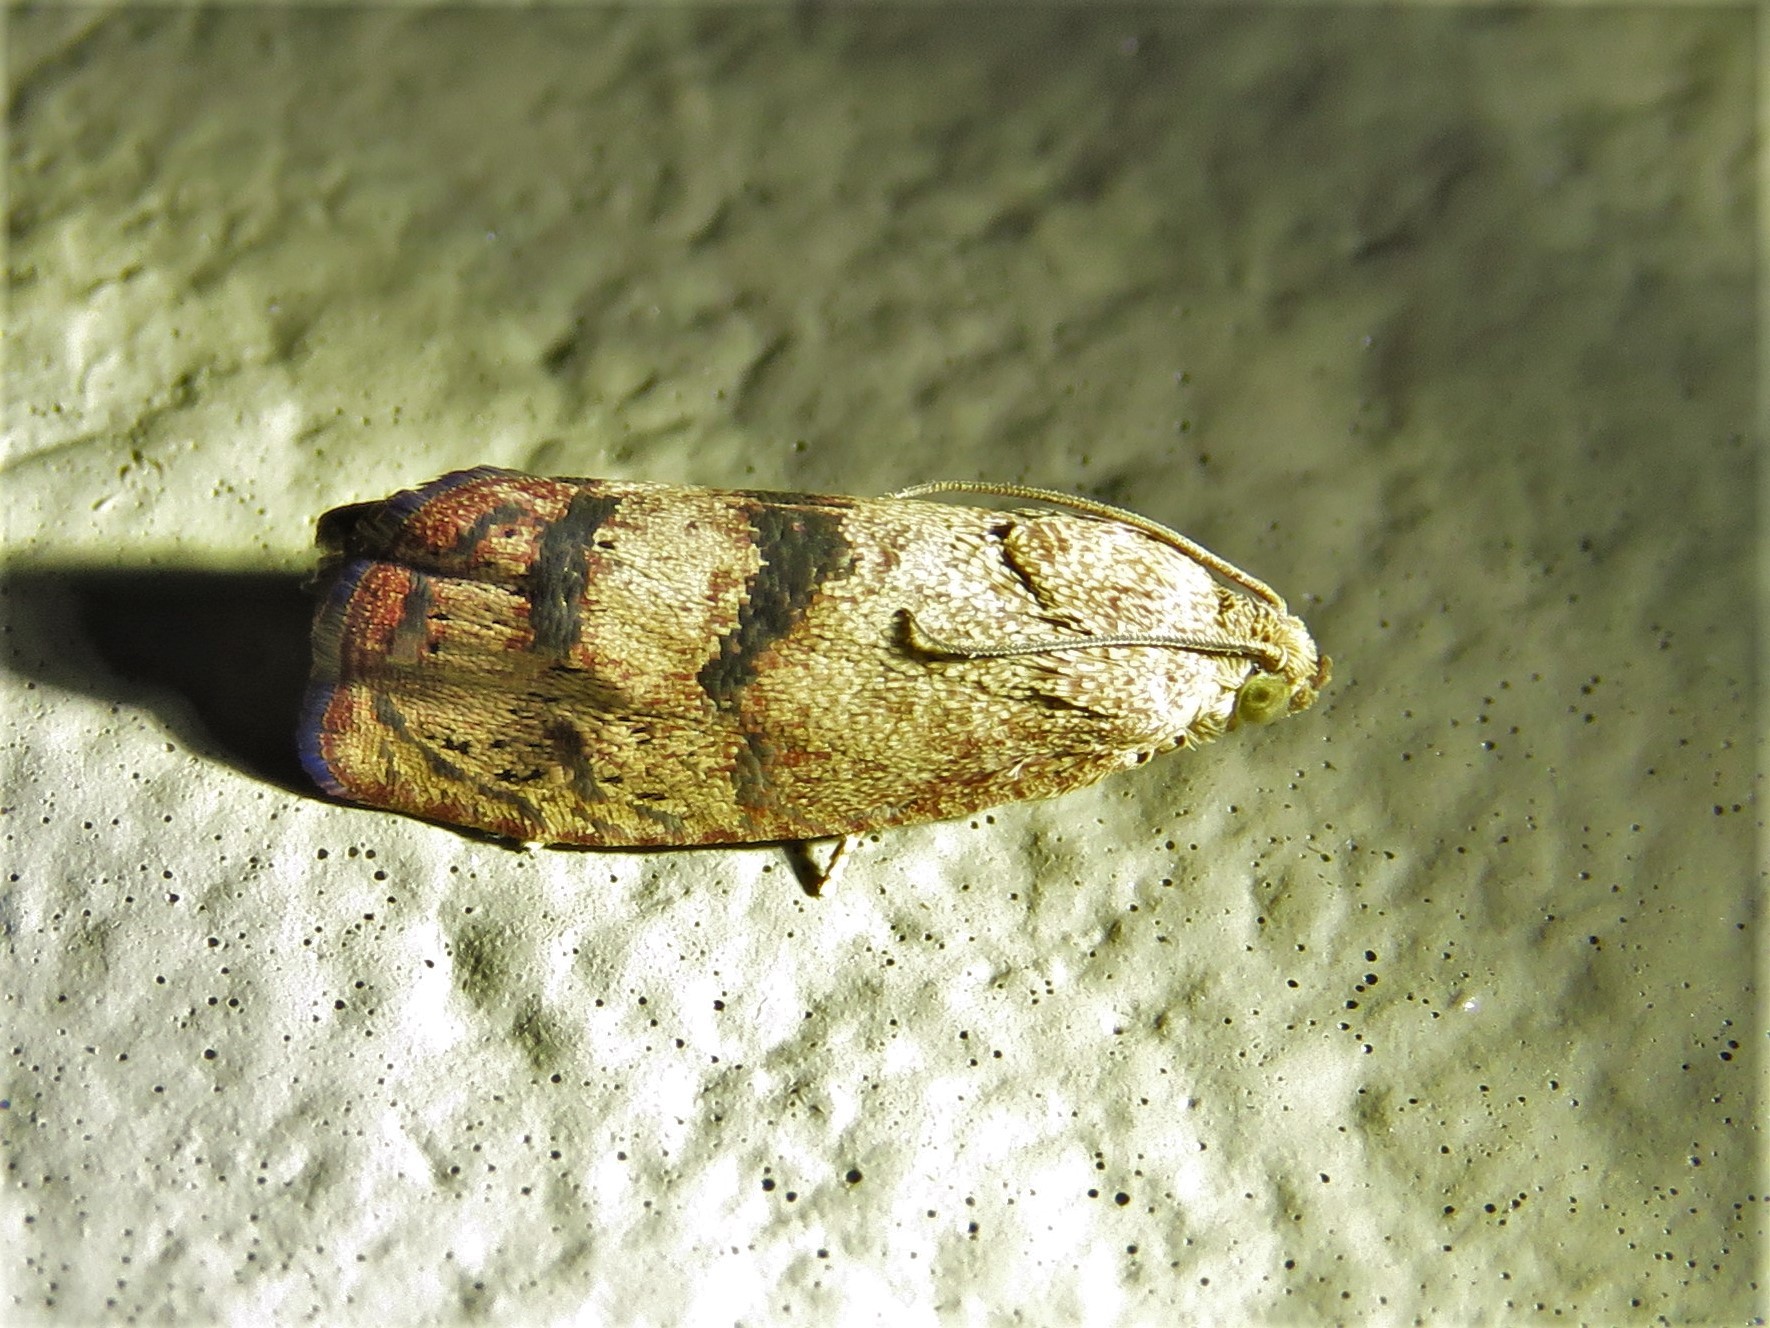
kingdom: Animalia
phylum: Arthropoda
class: Insecta
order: Lepidoptera
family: Tortricidae
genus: Cydia
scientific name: Cydia latiferreana
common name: Filbertworm moth
